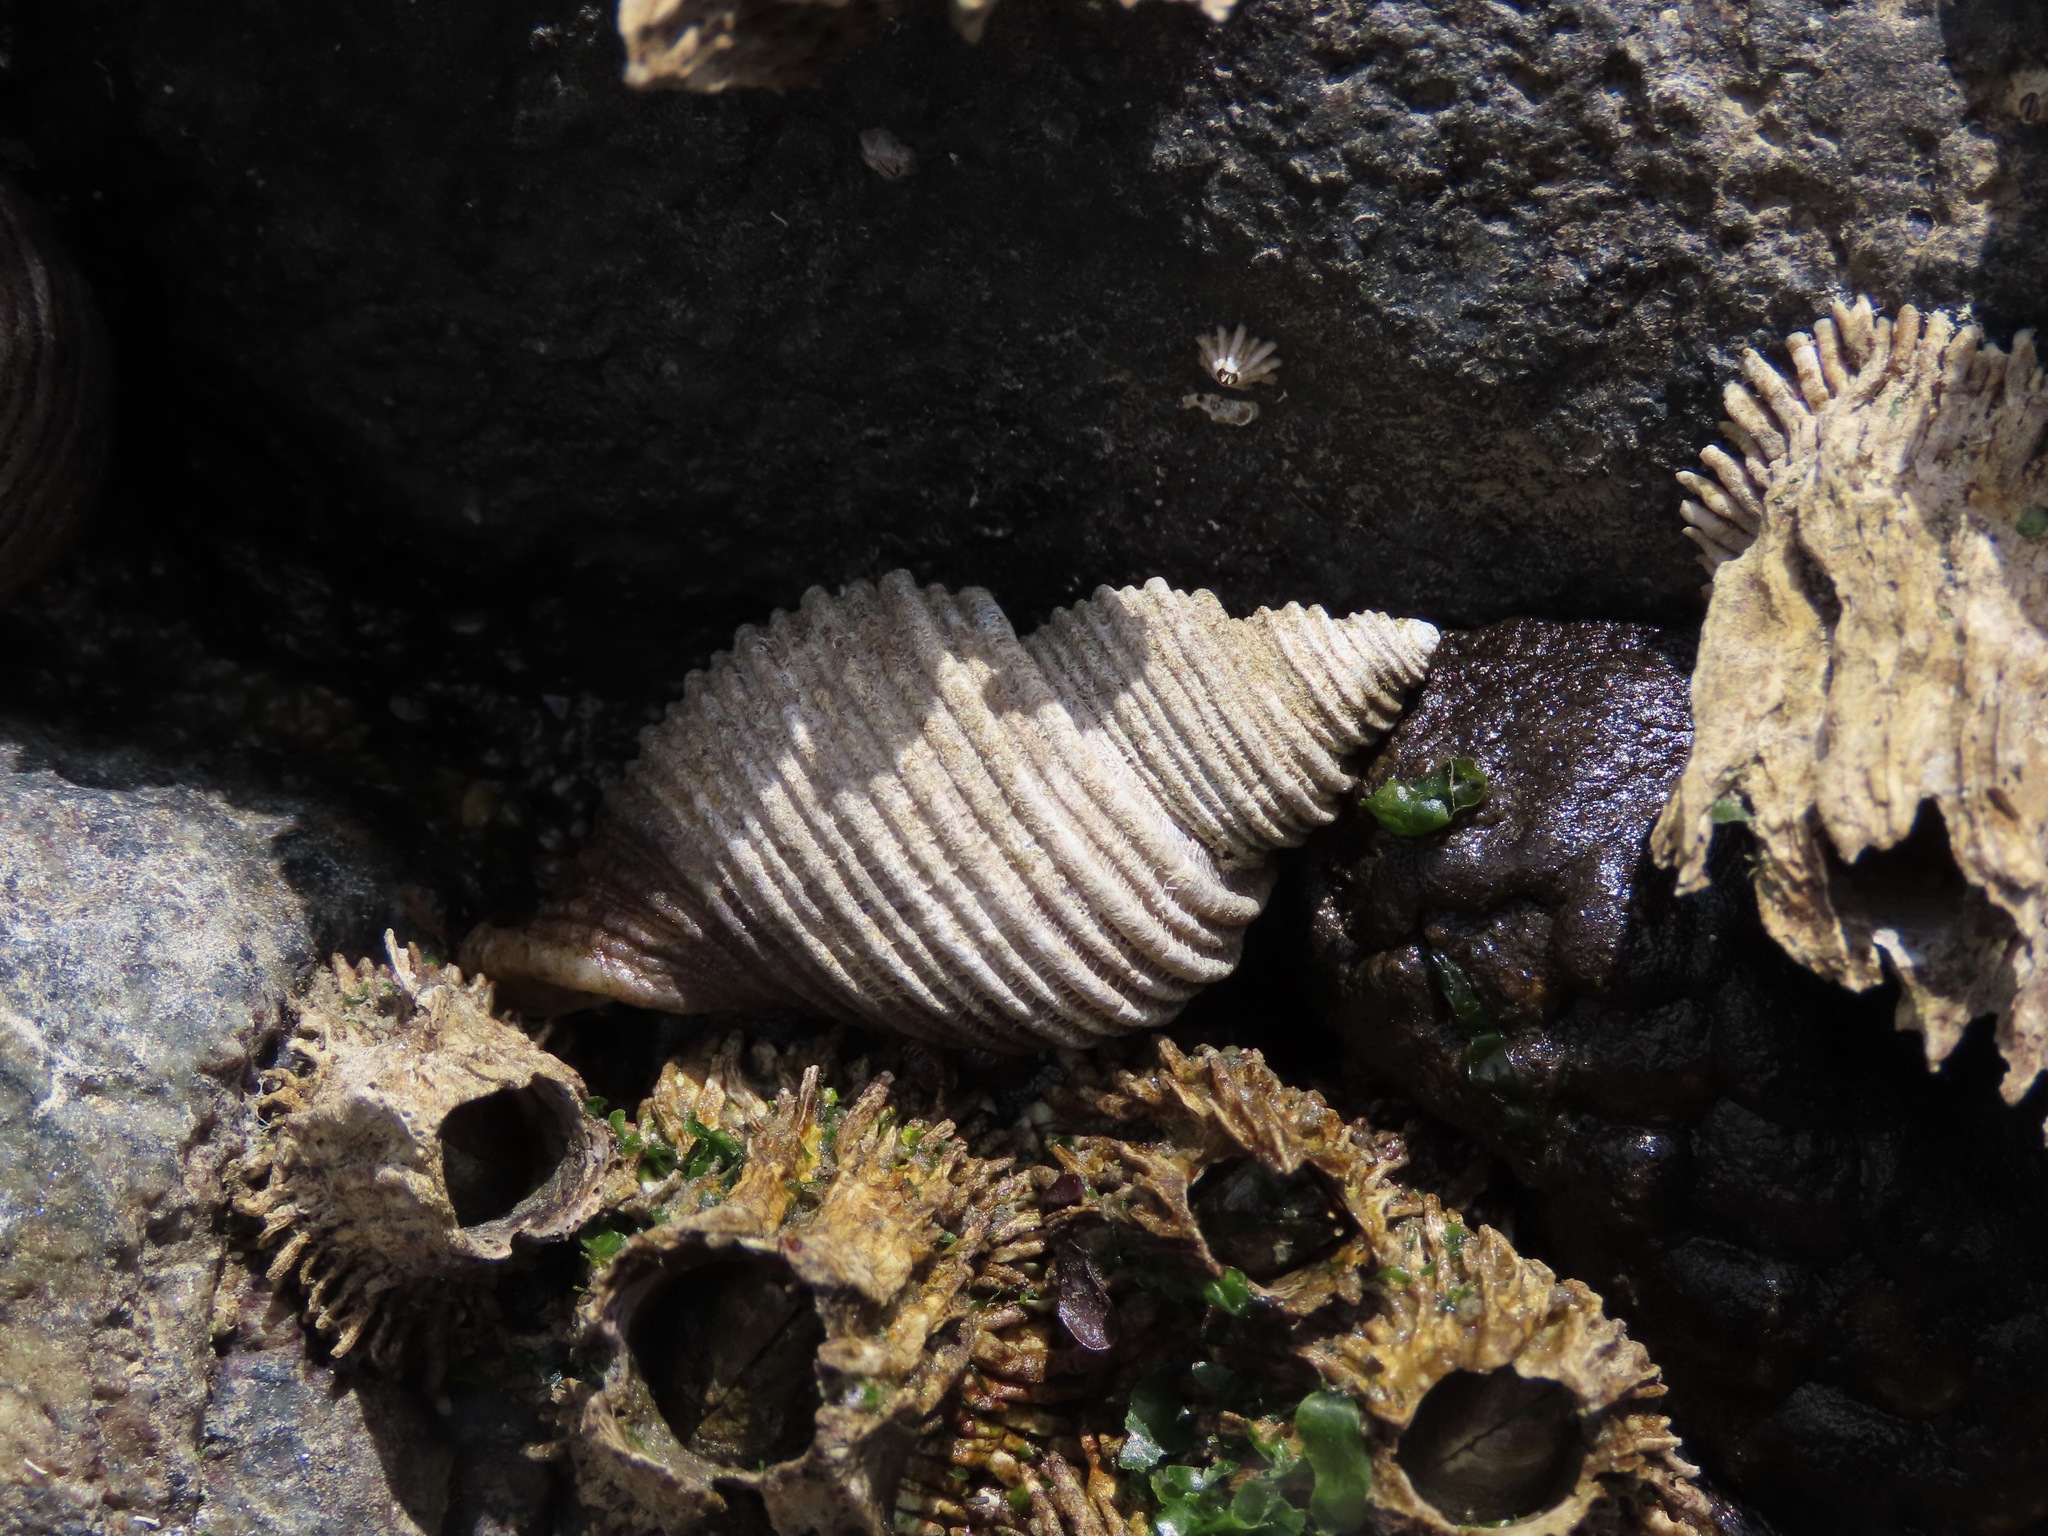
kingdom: Animalia
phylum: Mollusca
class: Gastropoda
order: Neogastropoda
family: Muricidae
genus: Nucella
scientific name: Nucella canaliculata
